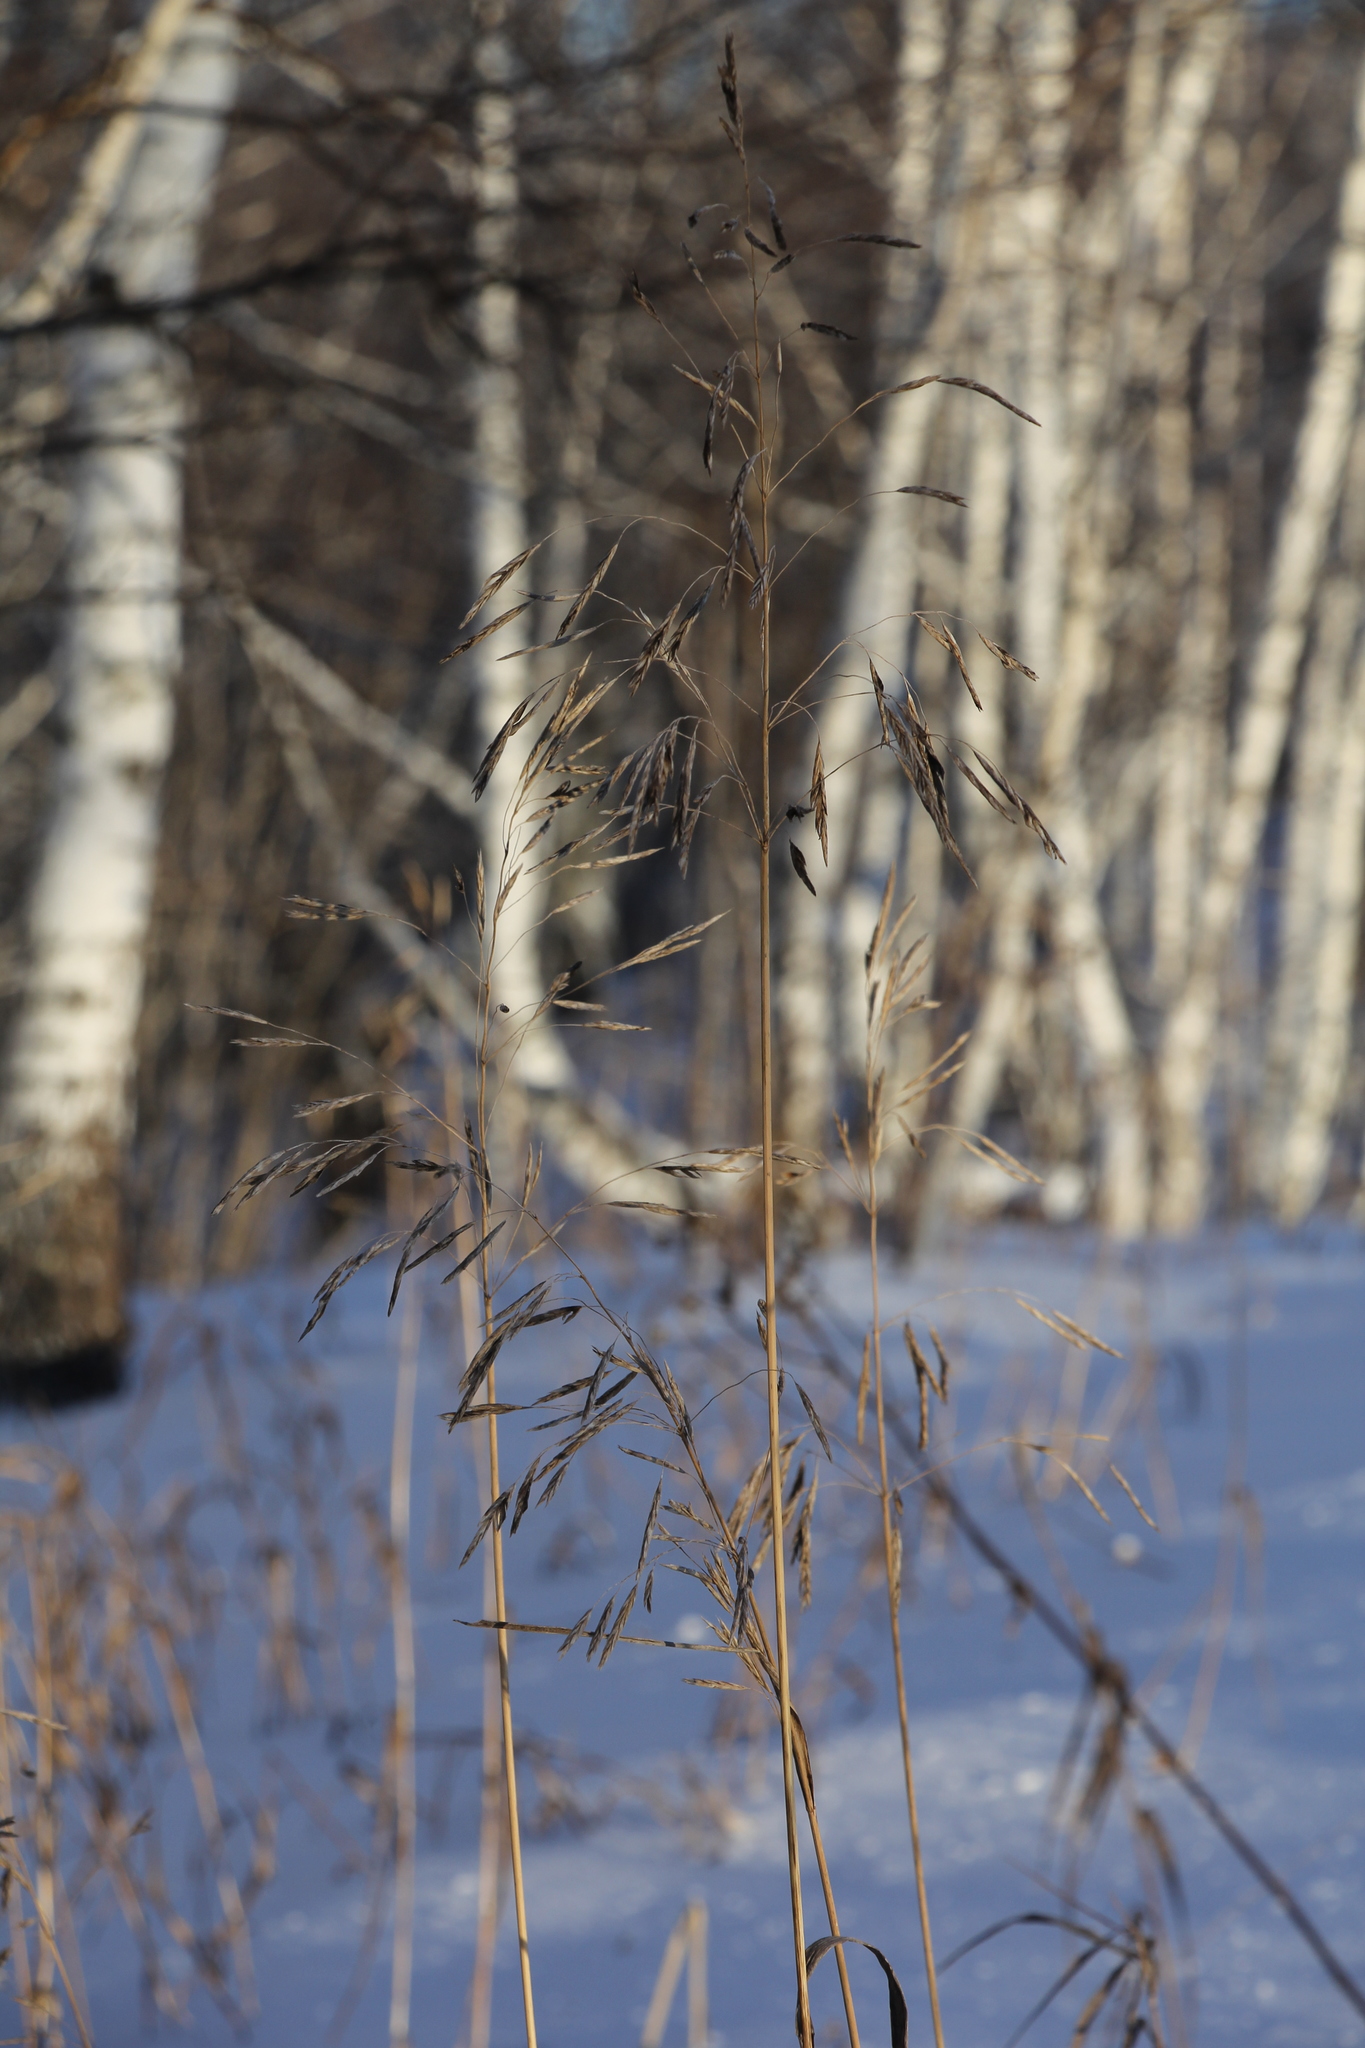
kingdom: Plantae
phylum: Tracheophyta
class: Liliopsida
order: Poales
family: Poaceae
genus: Bromus
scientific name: Bromus inermis
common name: Smooth brome
